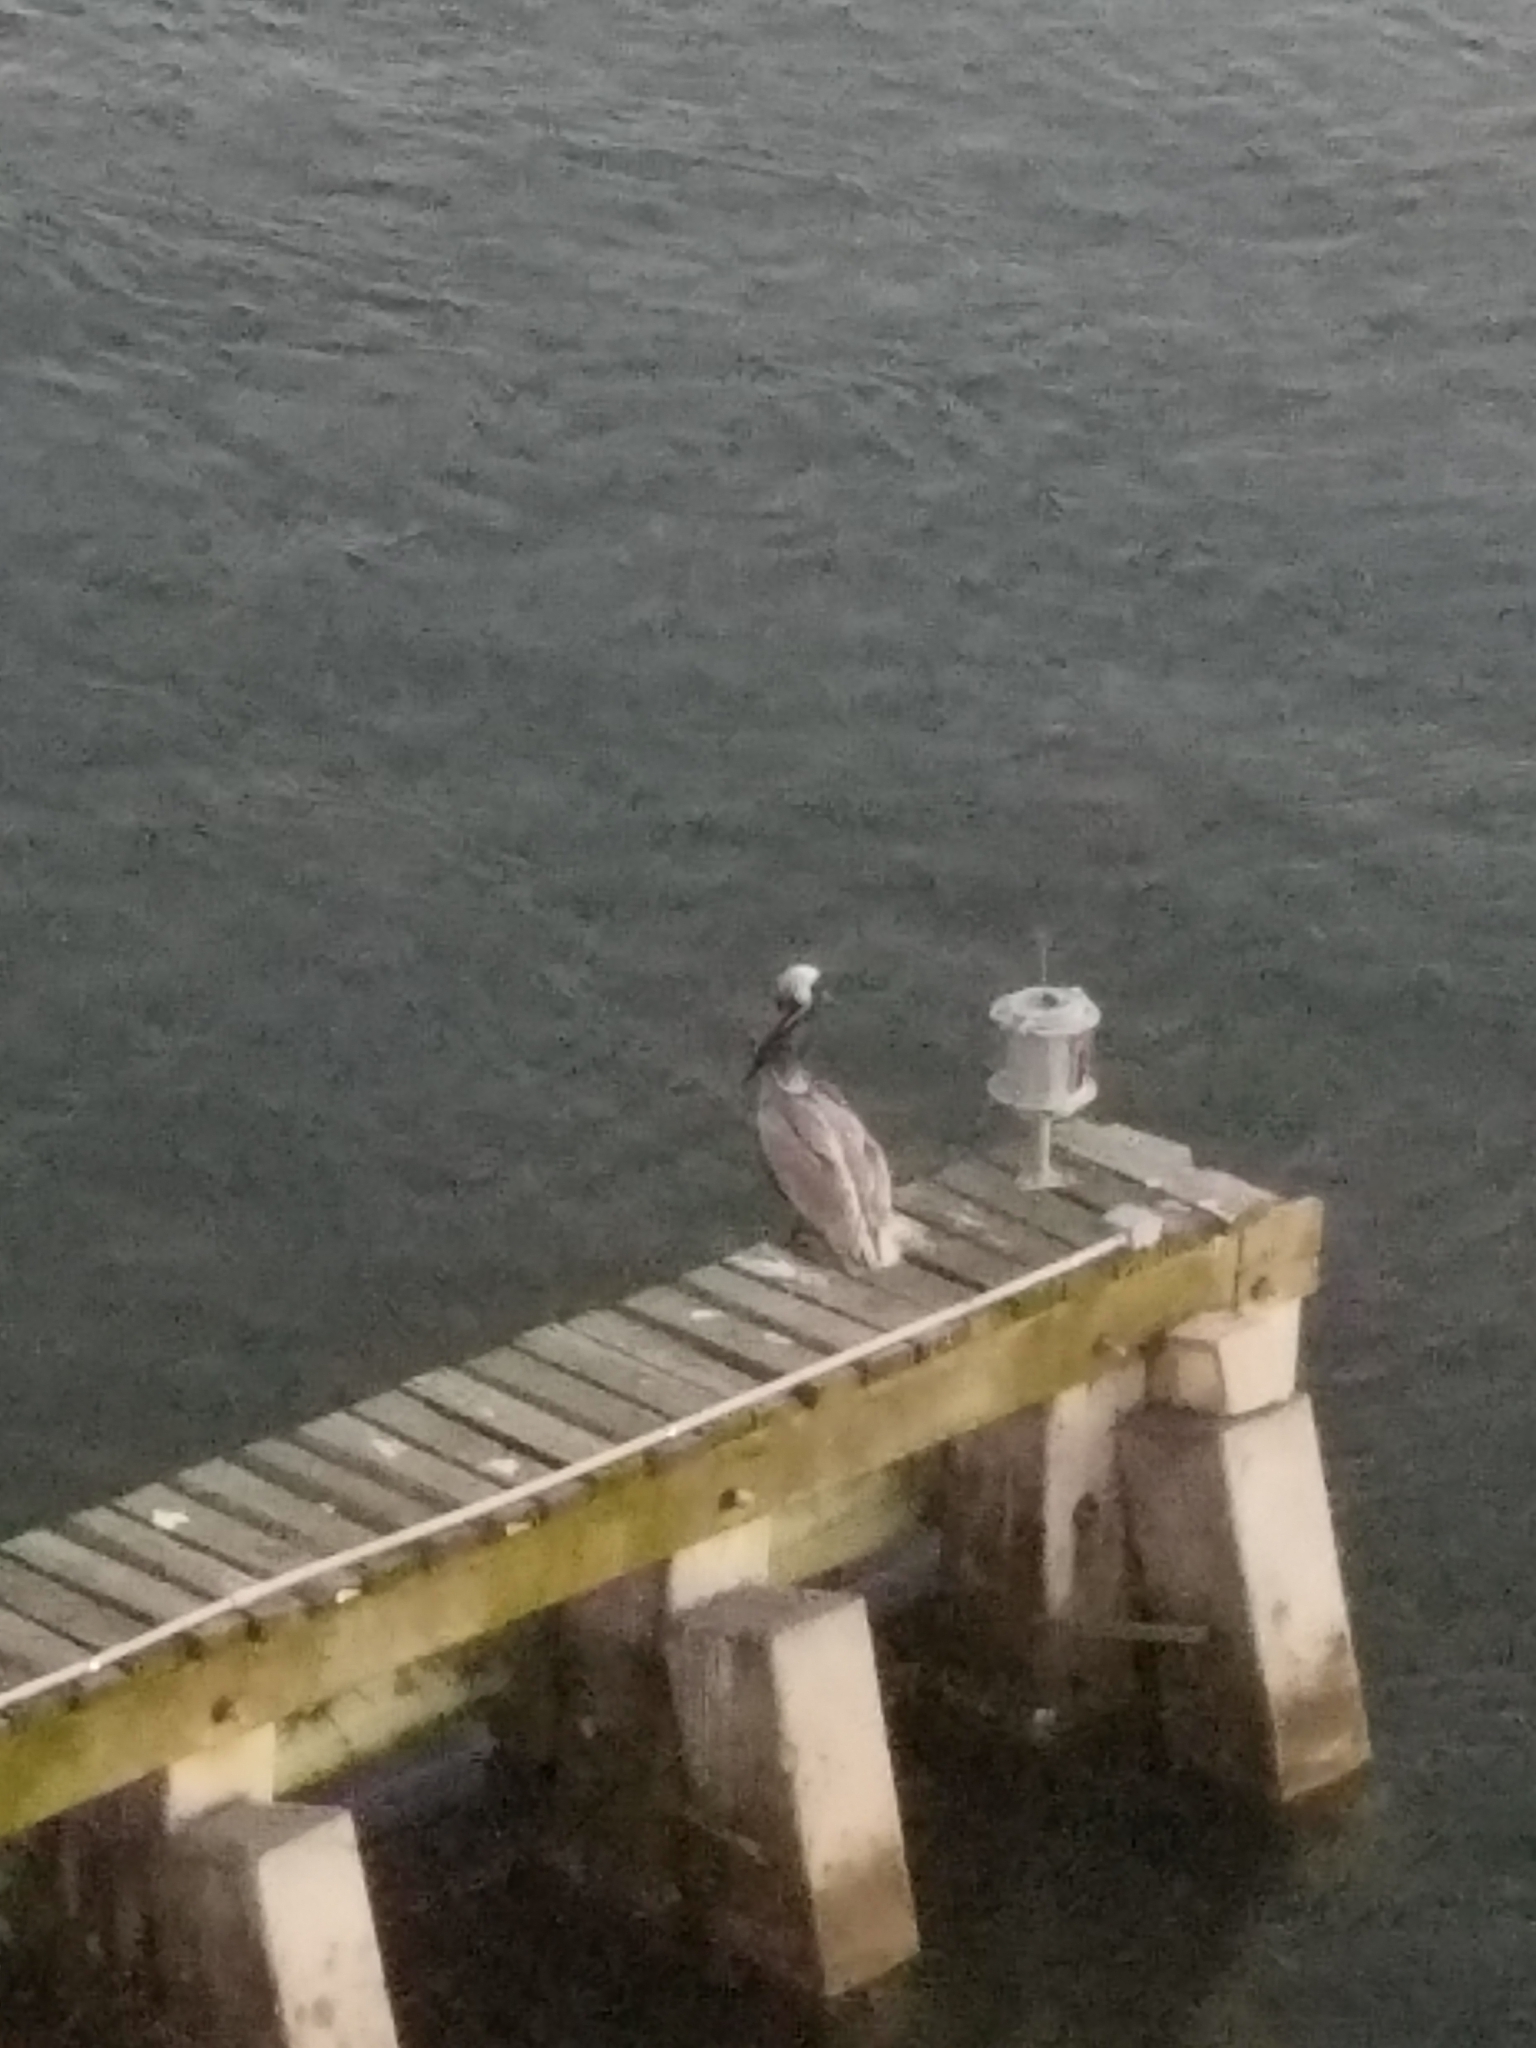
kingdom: Animalia
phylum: Chordata
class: Aves
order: Pelecaniformes
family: Pelecanidae
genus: Pelecanus
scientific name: Pelecanus occidentalis
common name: Brown pelican
